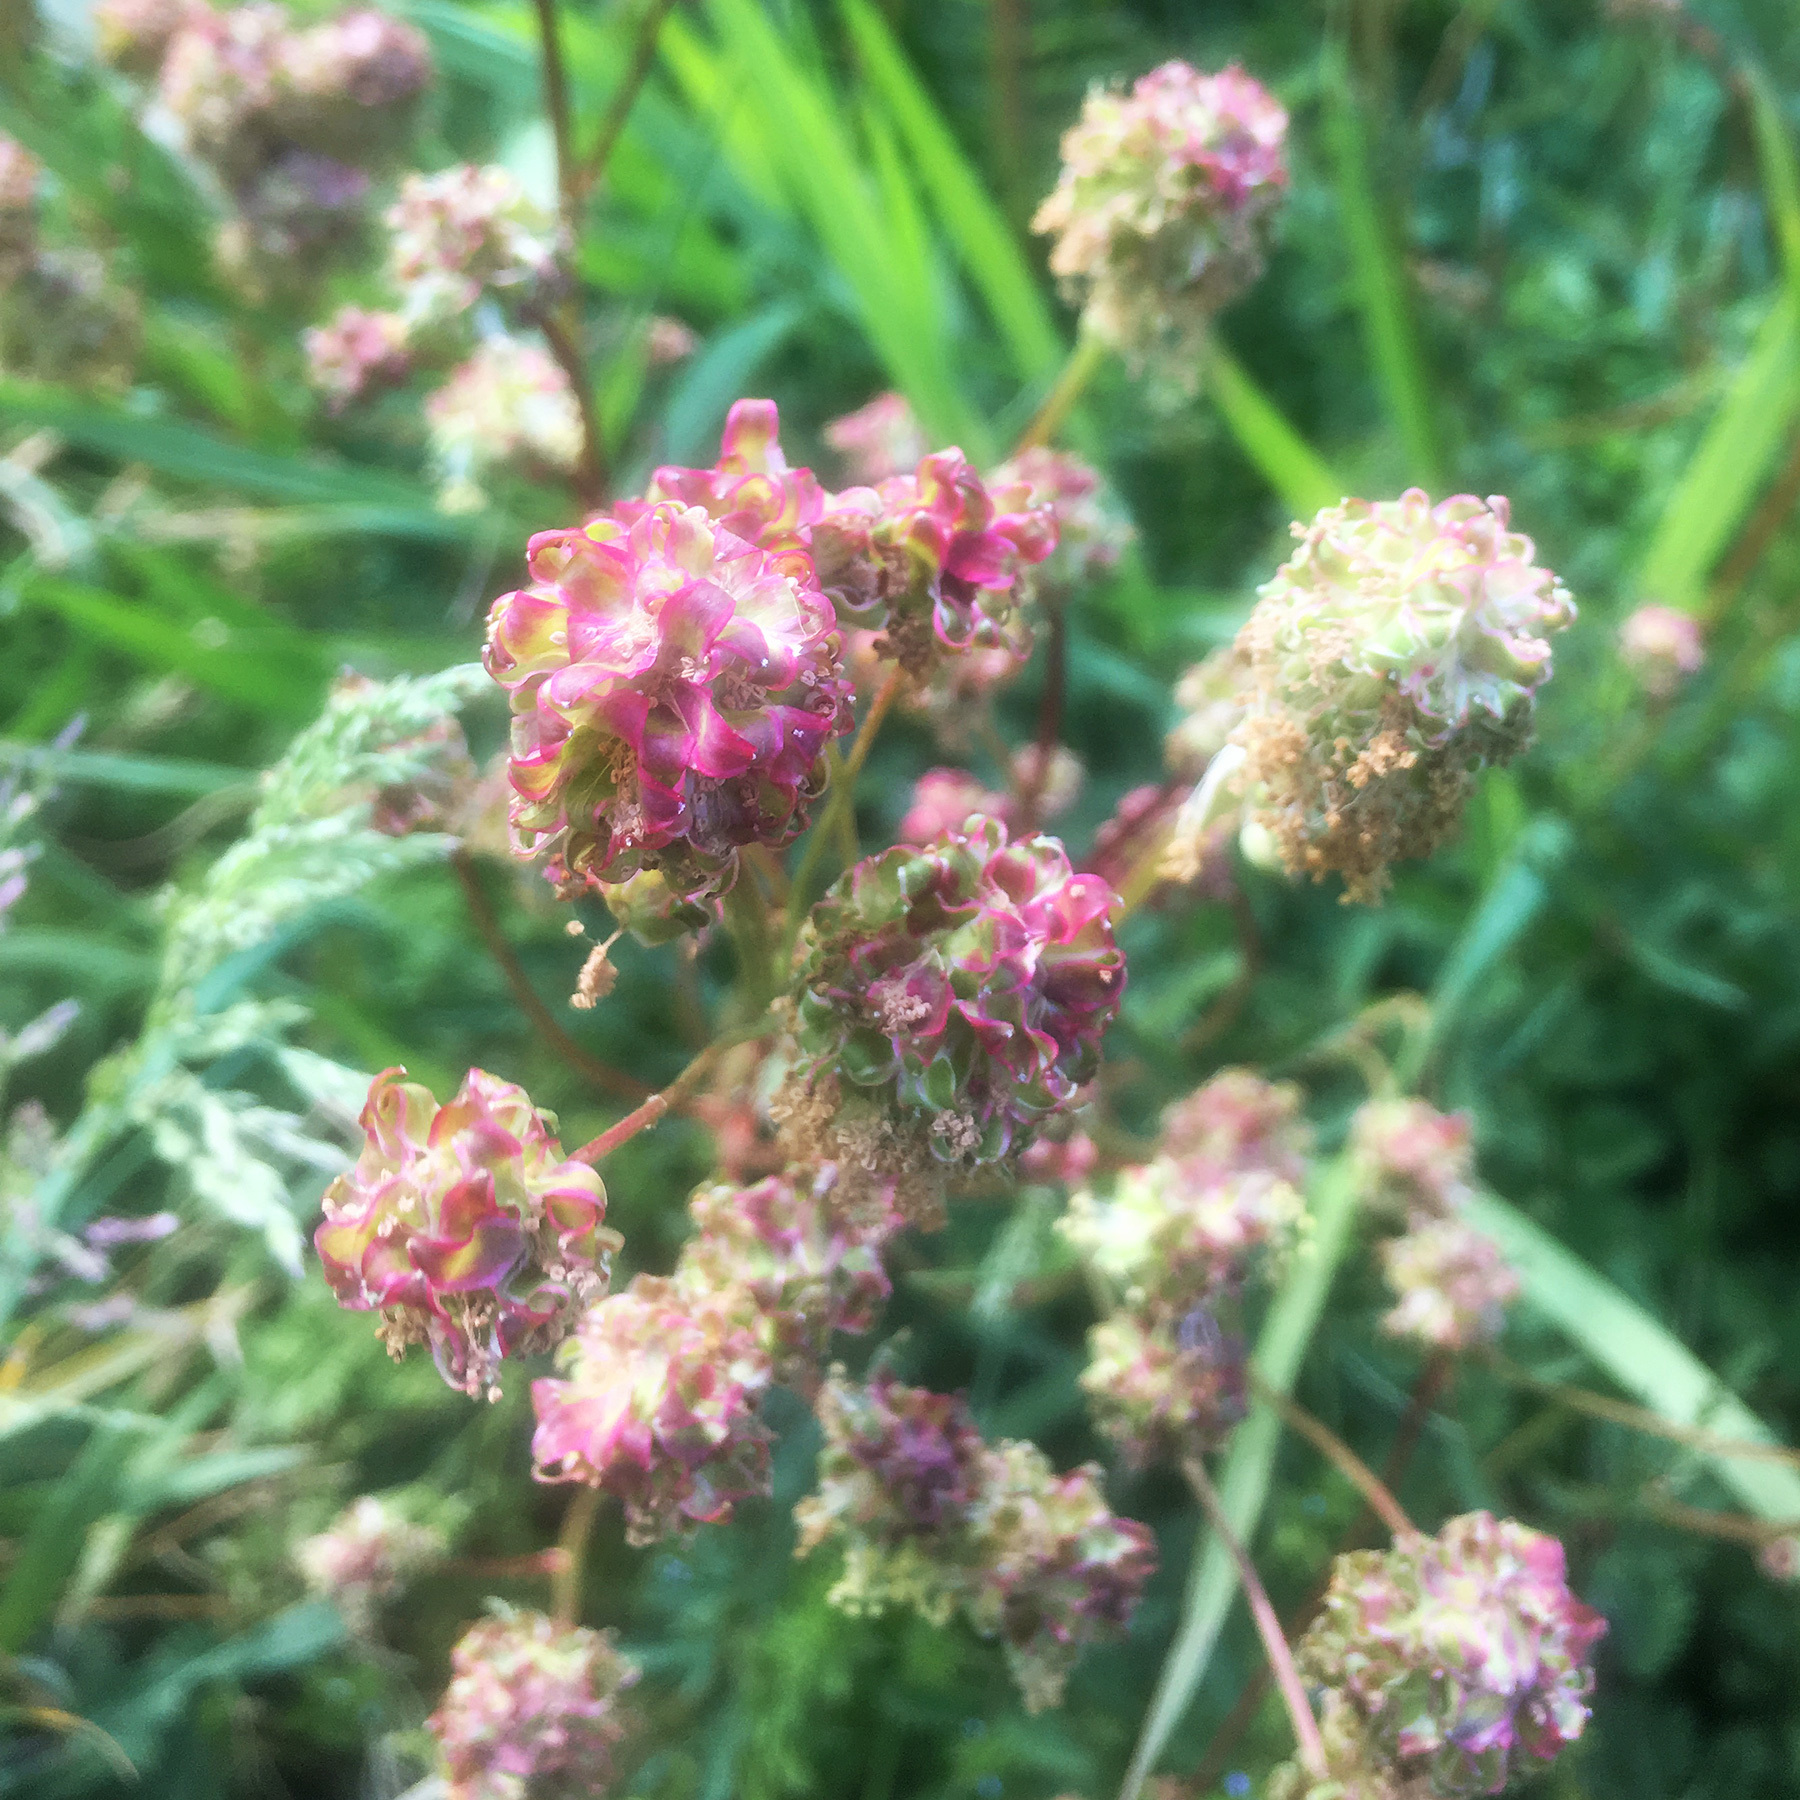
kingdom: Plantae
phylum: Tracheophyta
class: Magnoliopsida
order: Rosales
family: Rosaceae
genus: Poterium
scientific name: Poterium sanguisorba
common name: Salad burnet
